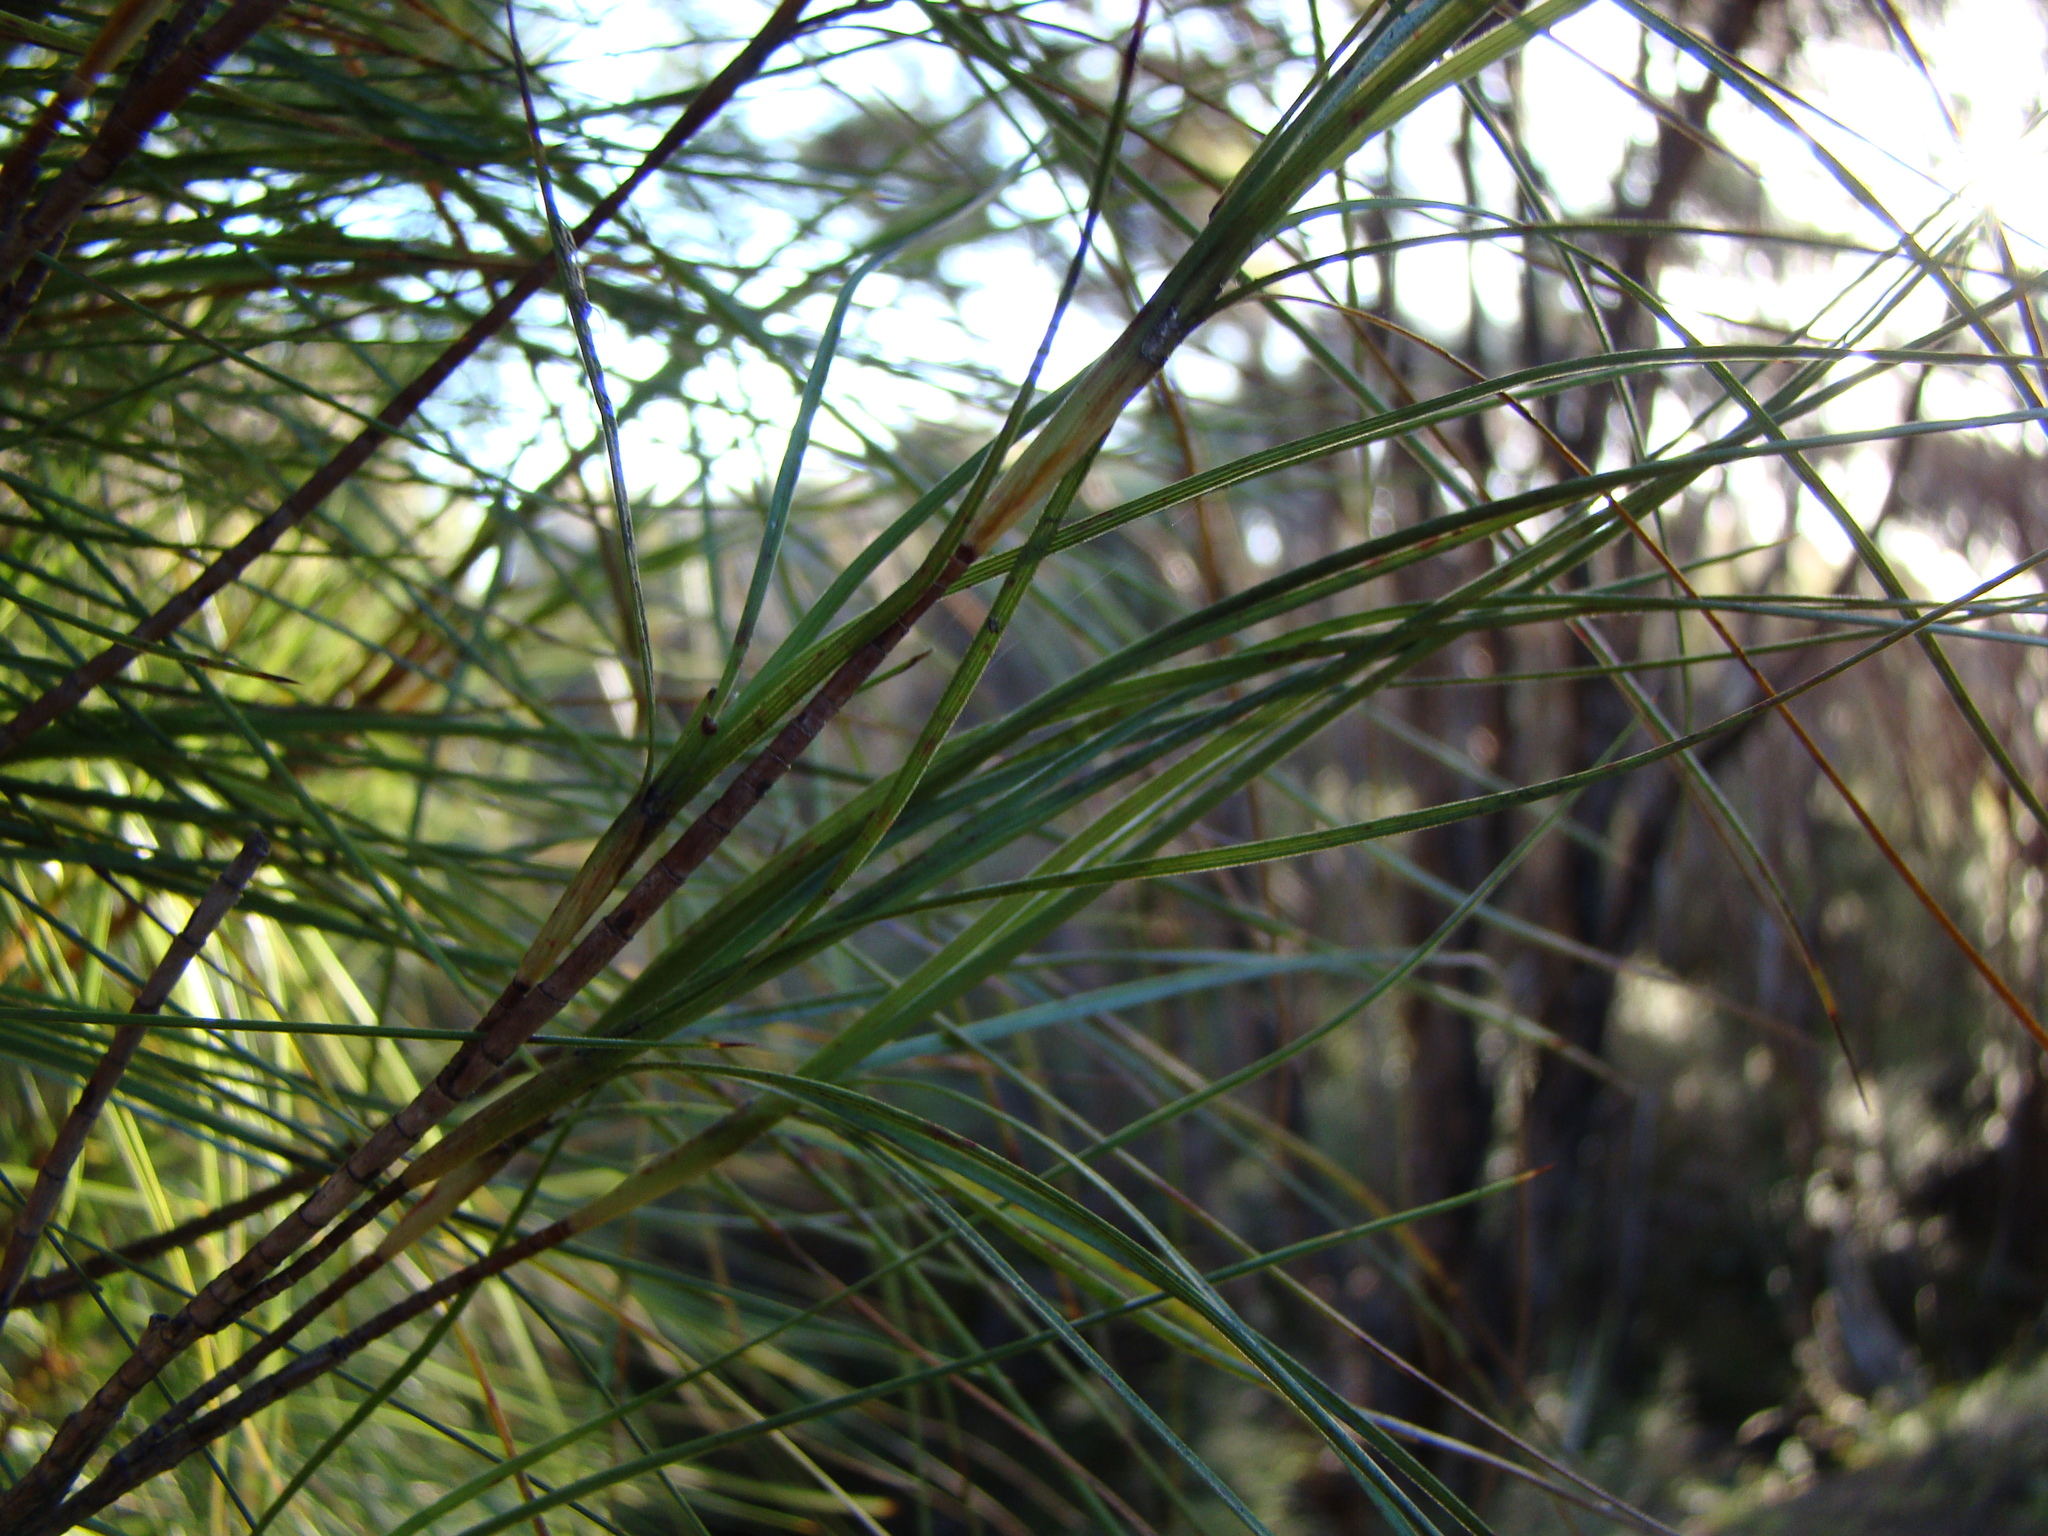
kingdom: Plantae
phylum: Tracheophyta
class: Magnoliopsida
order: Ericales
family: Ericaceae
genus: Dracophyllum
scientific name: Dracophyllum longifolium
